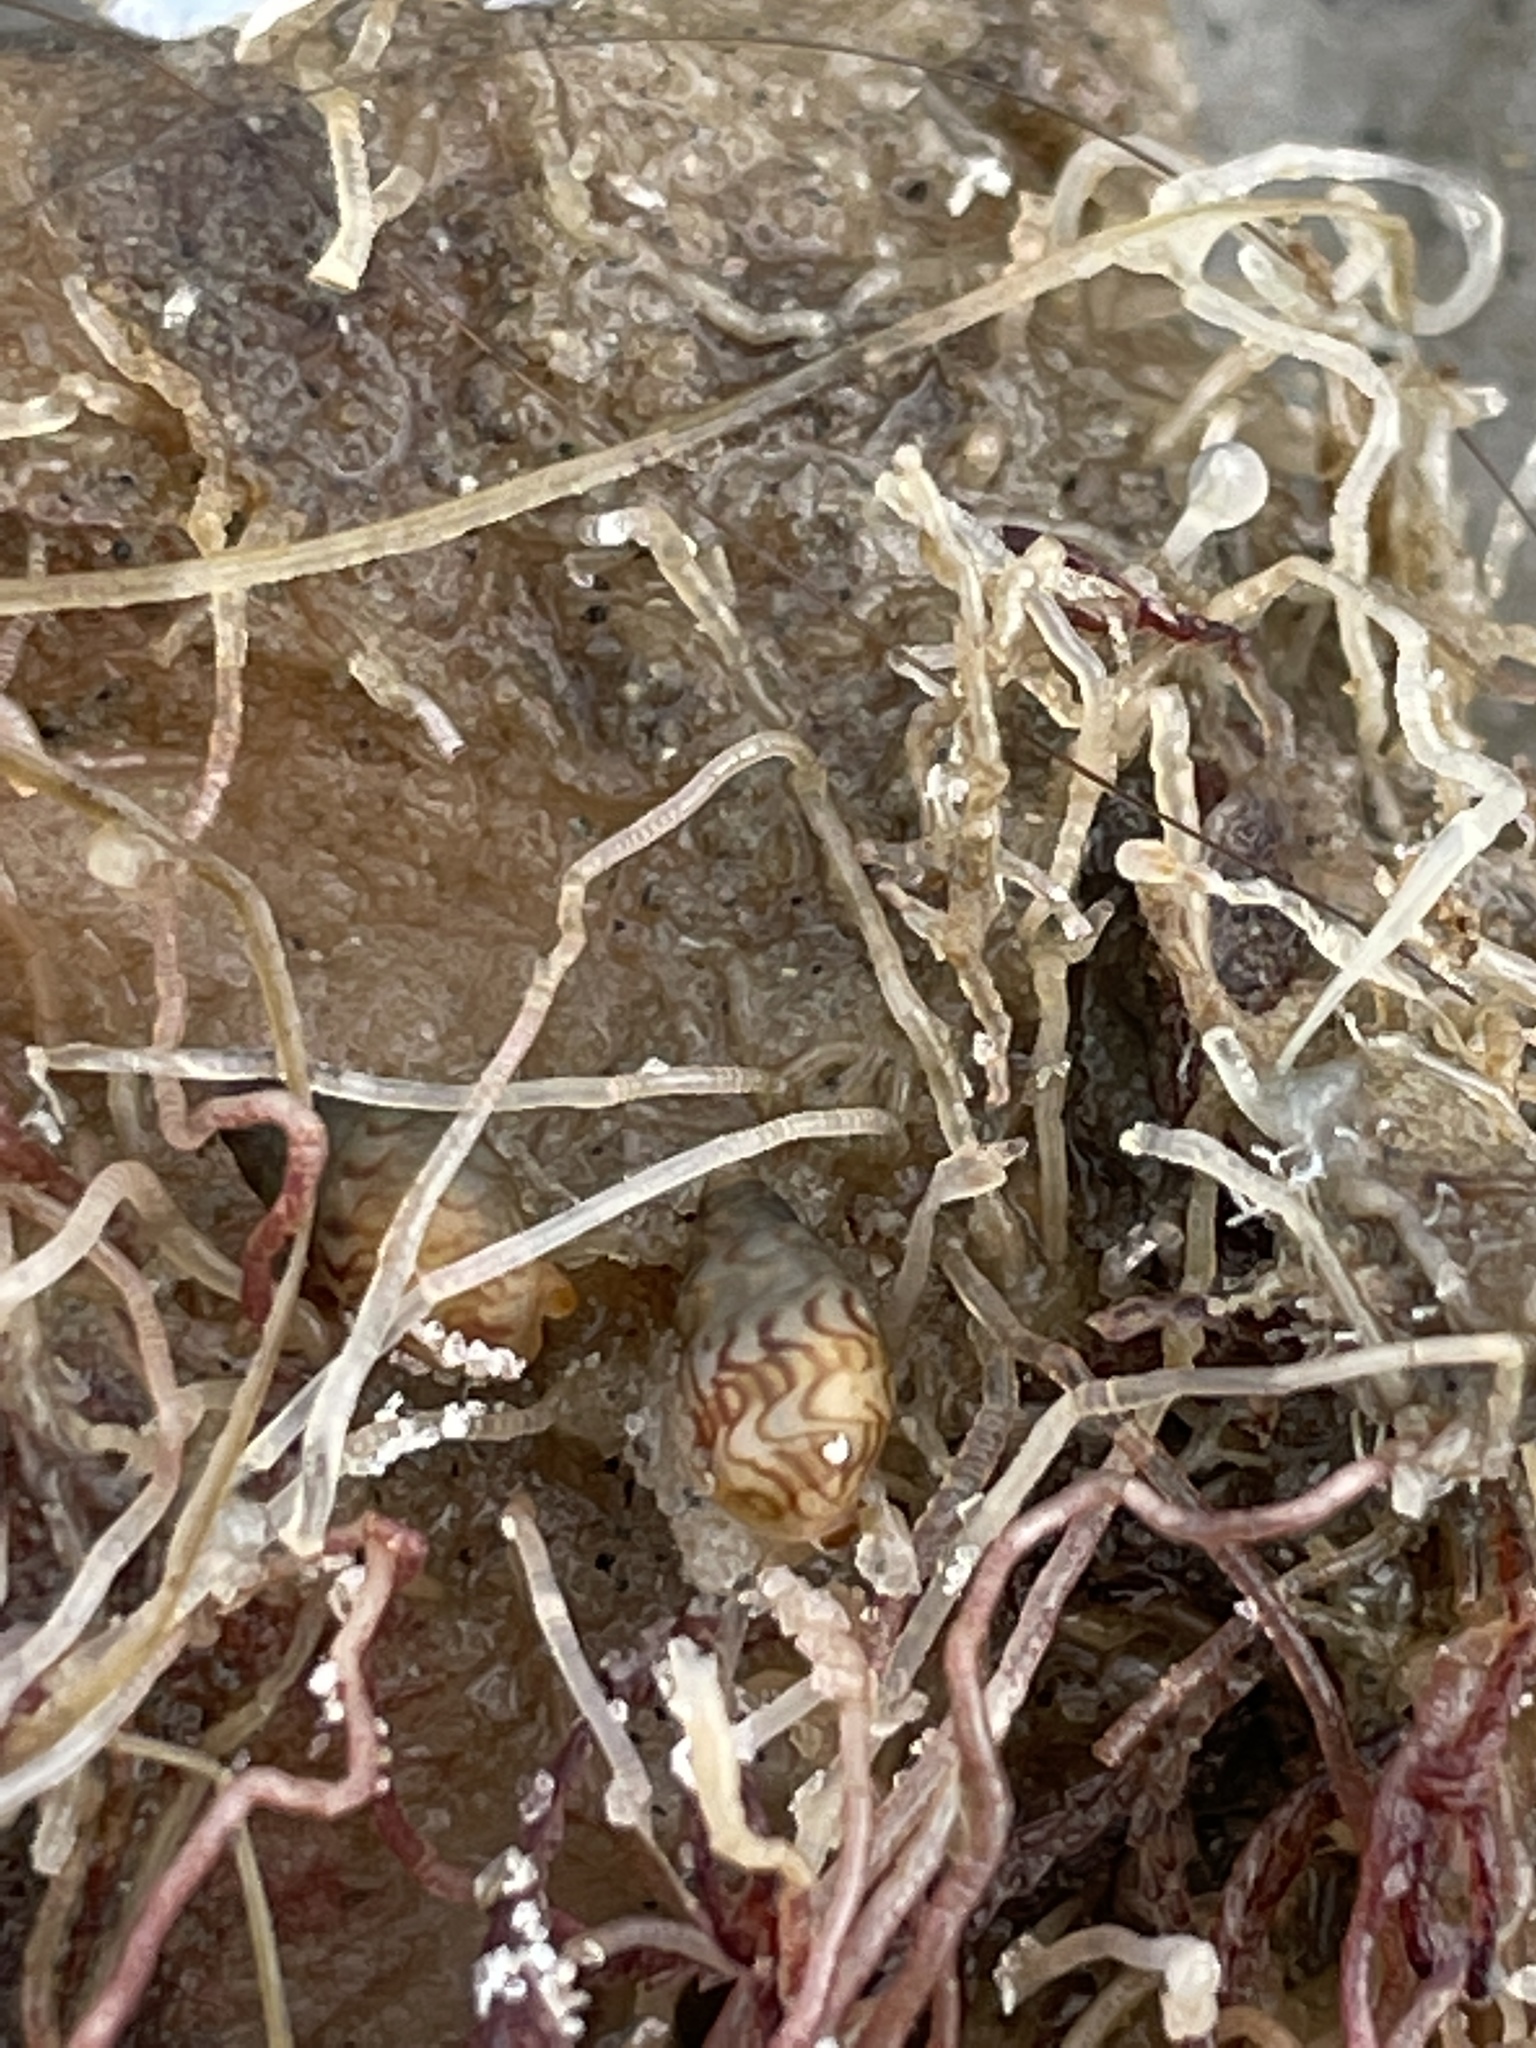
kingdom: Animalia
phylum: Mollusca
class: Gastropoda
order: Neogastropoda
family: Columbellidae
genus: Astyris
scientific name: Astyris lunata
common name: Lunar dovesnail
